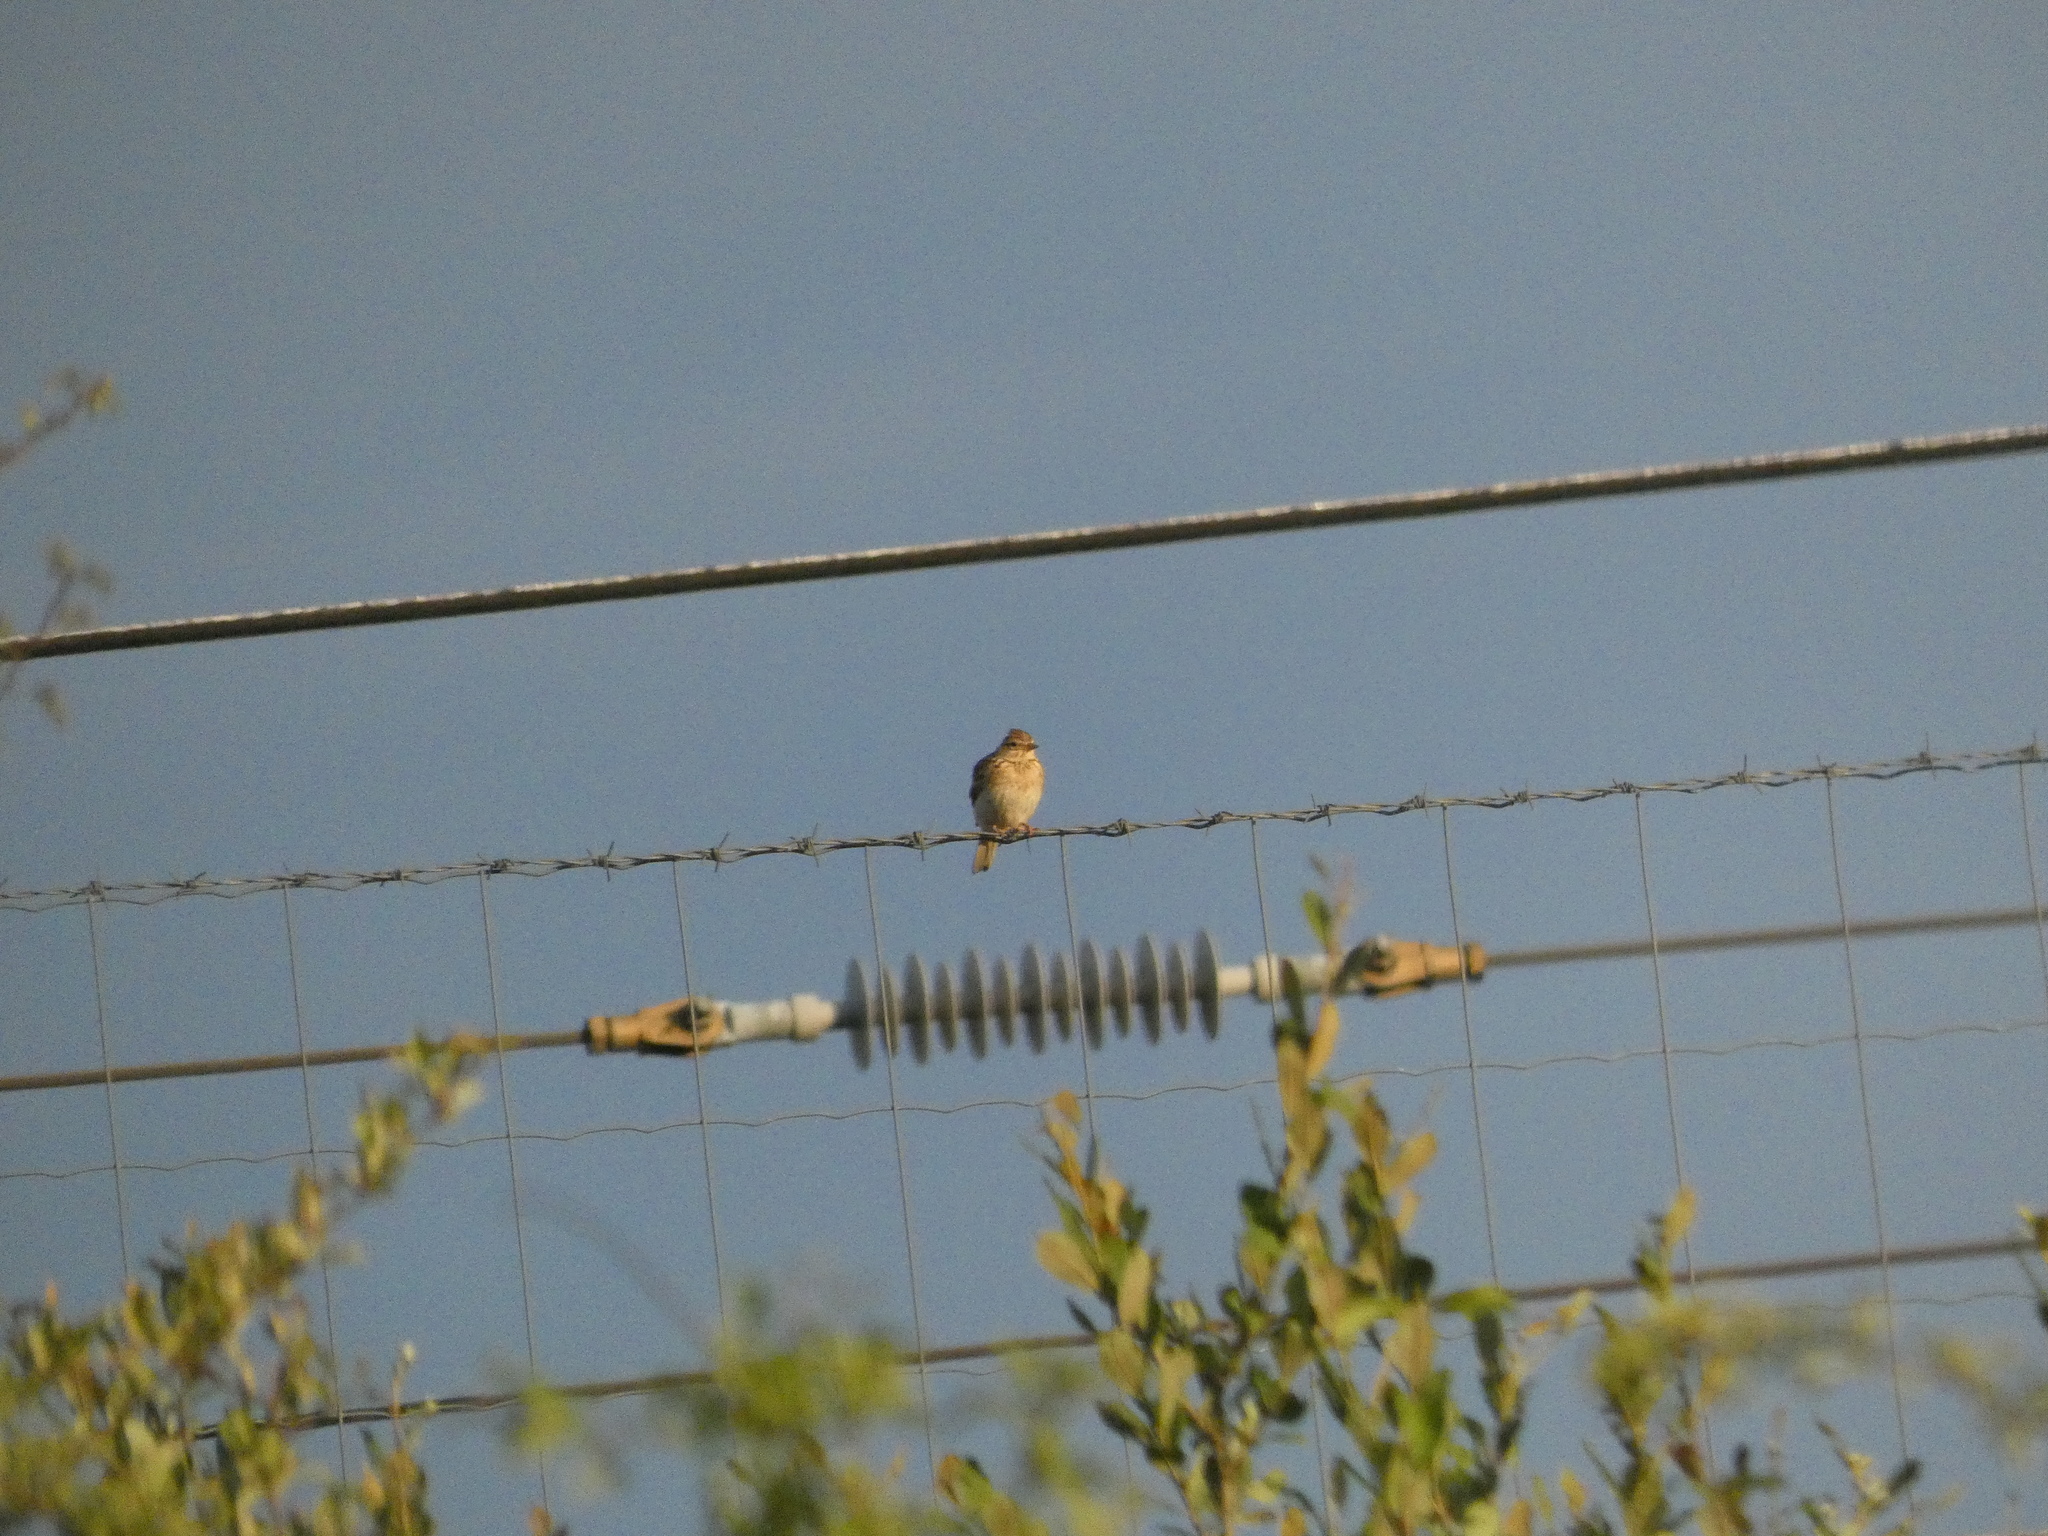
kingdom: Animalia
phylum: Chordata
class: Aves
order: Passeriformes
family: Alaudidae
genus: Alauda
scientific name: Alauda arvensis
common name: Eurasian skylark
